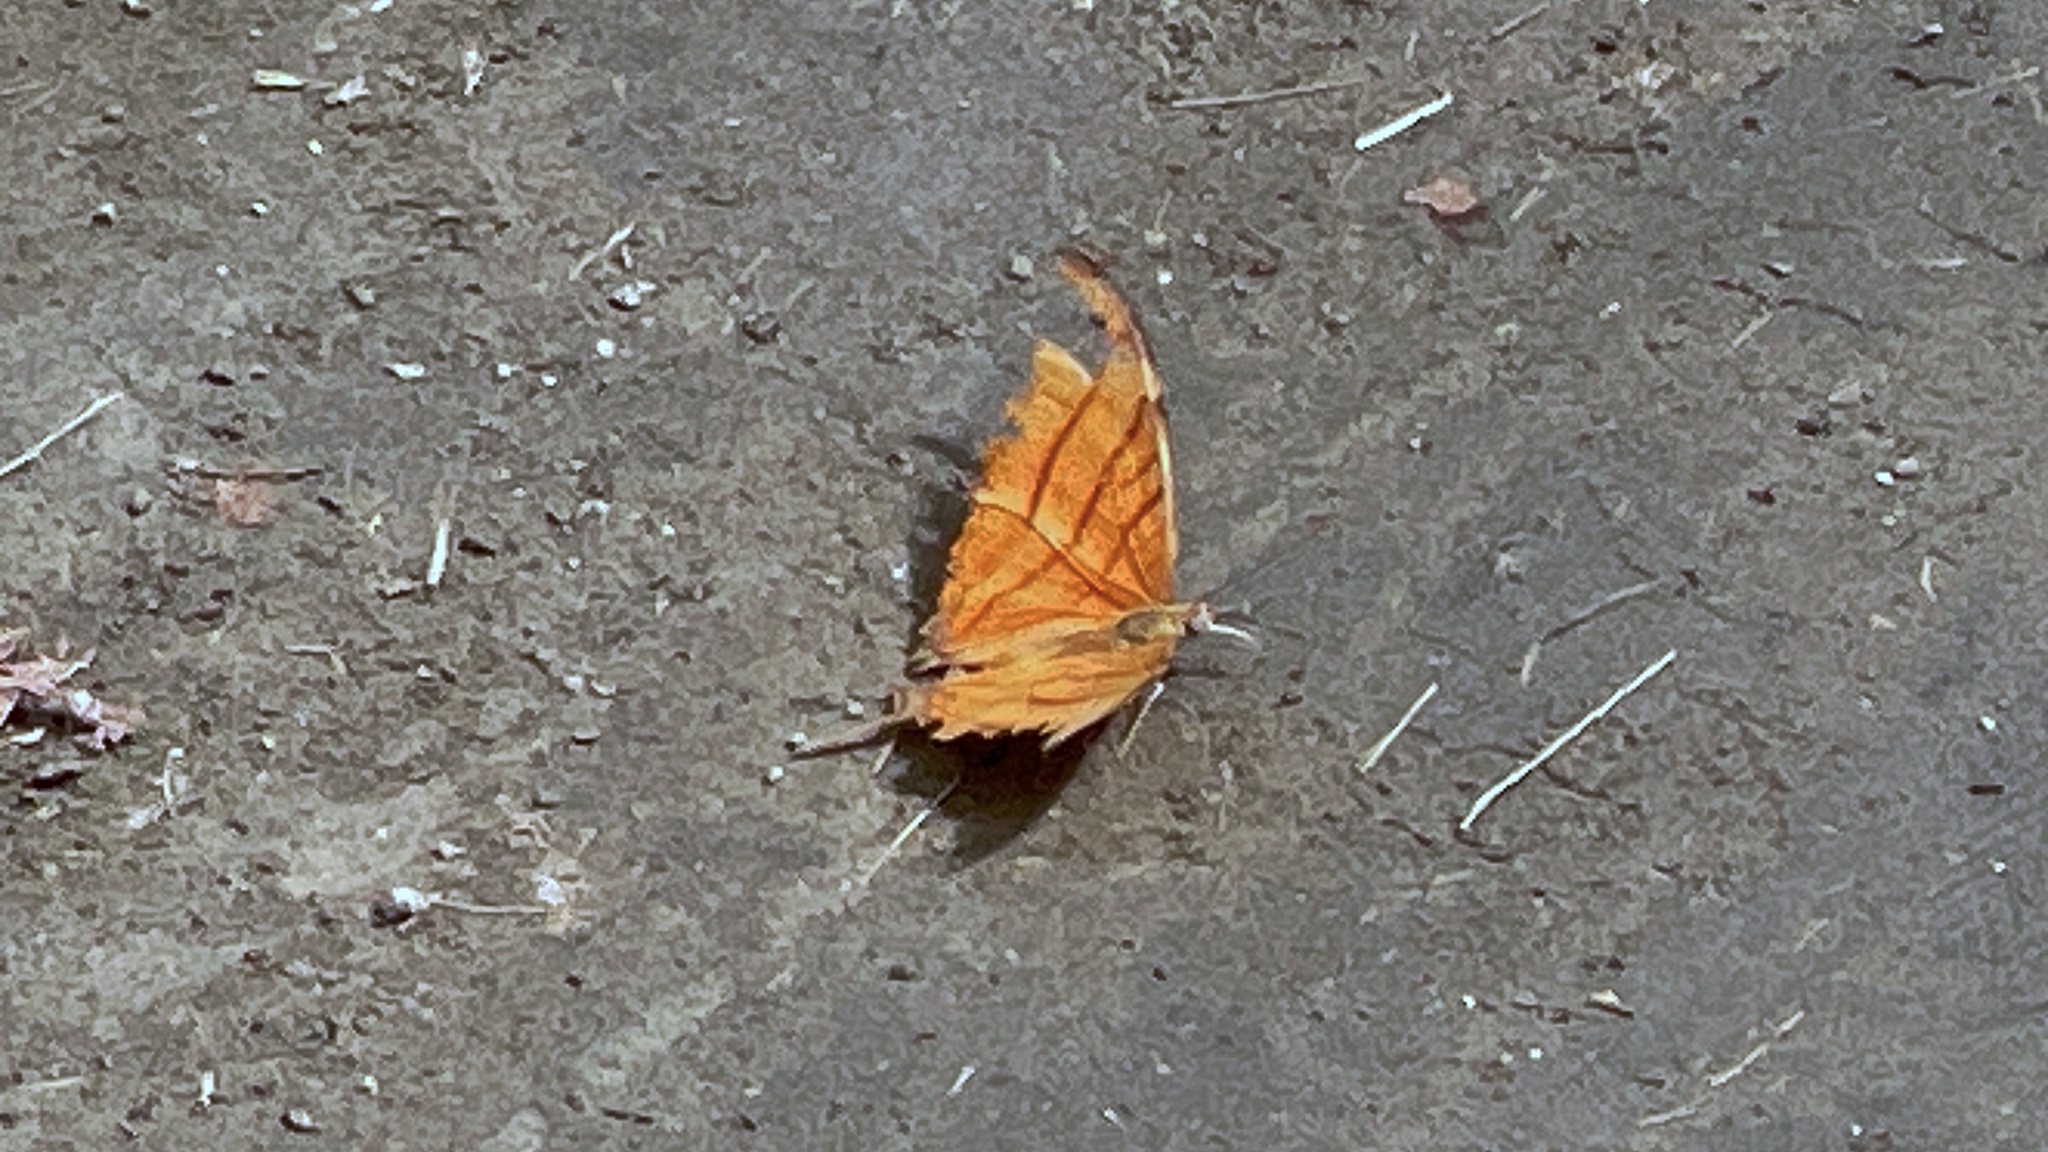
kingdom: Animalia
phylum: Arthropoda
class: Insecta
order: Lepidoptera
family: Nymphalidae
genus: Marpesia
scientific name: Marpesia petreus
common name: Red dagger wing
